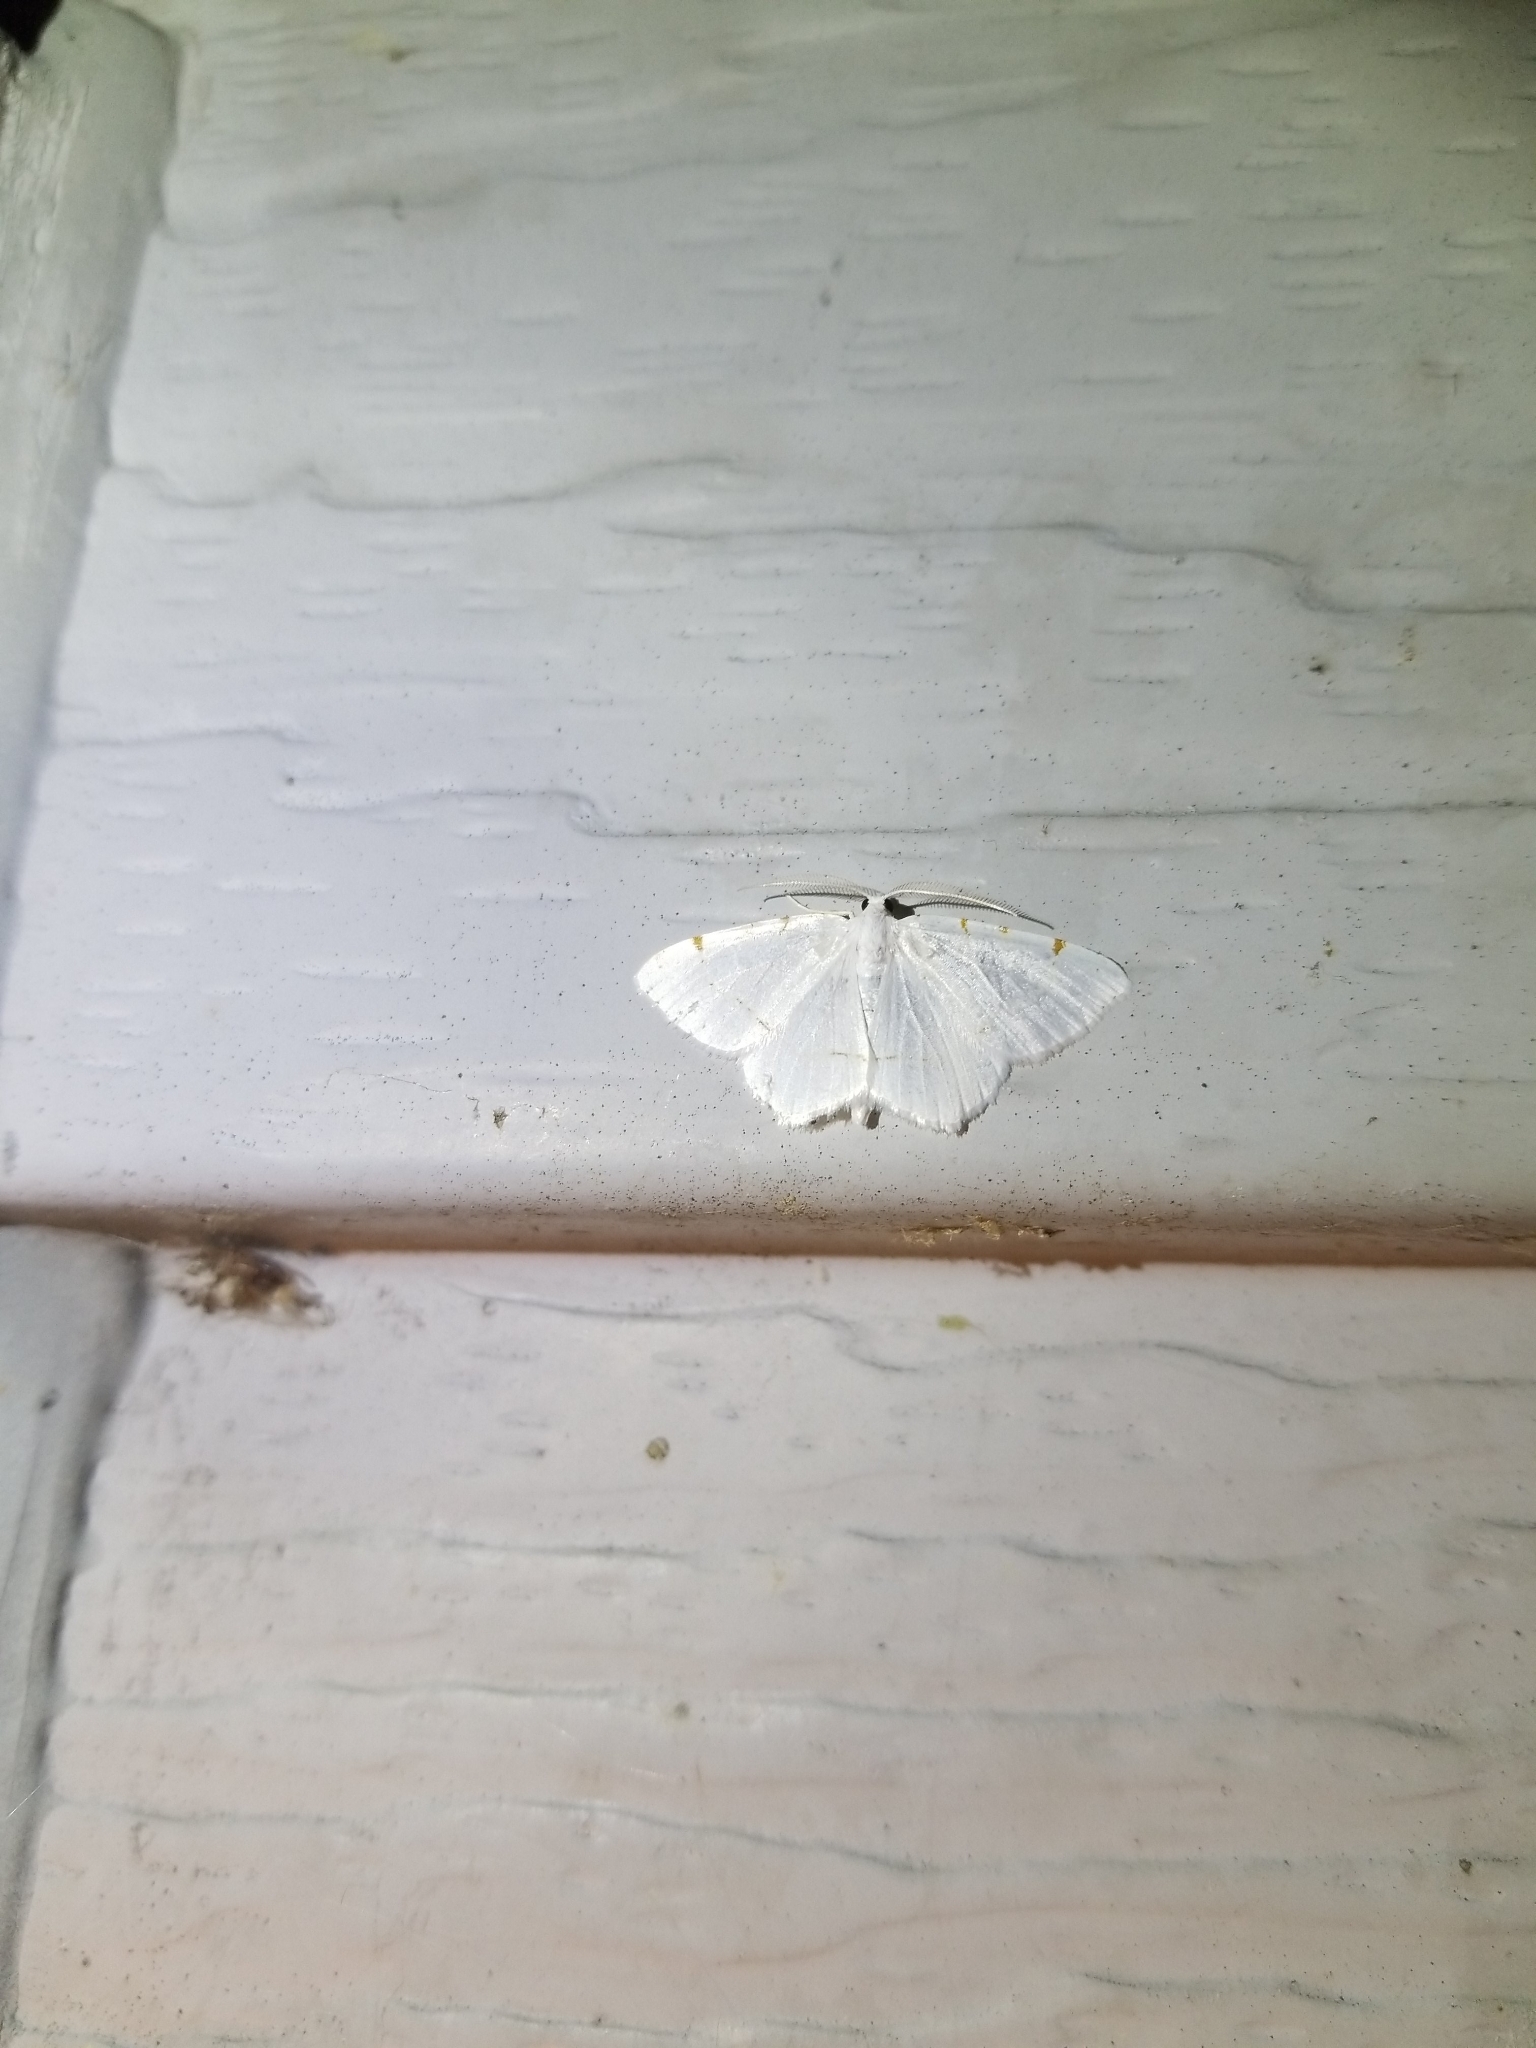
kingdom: Animalia
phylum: Arthropoda
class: Insecta
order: Lepidoptera
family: Geometridae
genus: Macaria
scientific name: Macaria pustularia
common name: Lesser maple spanworm moth
